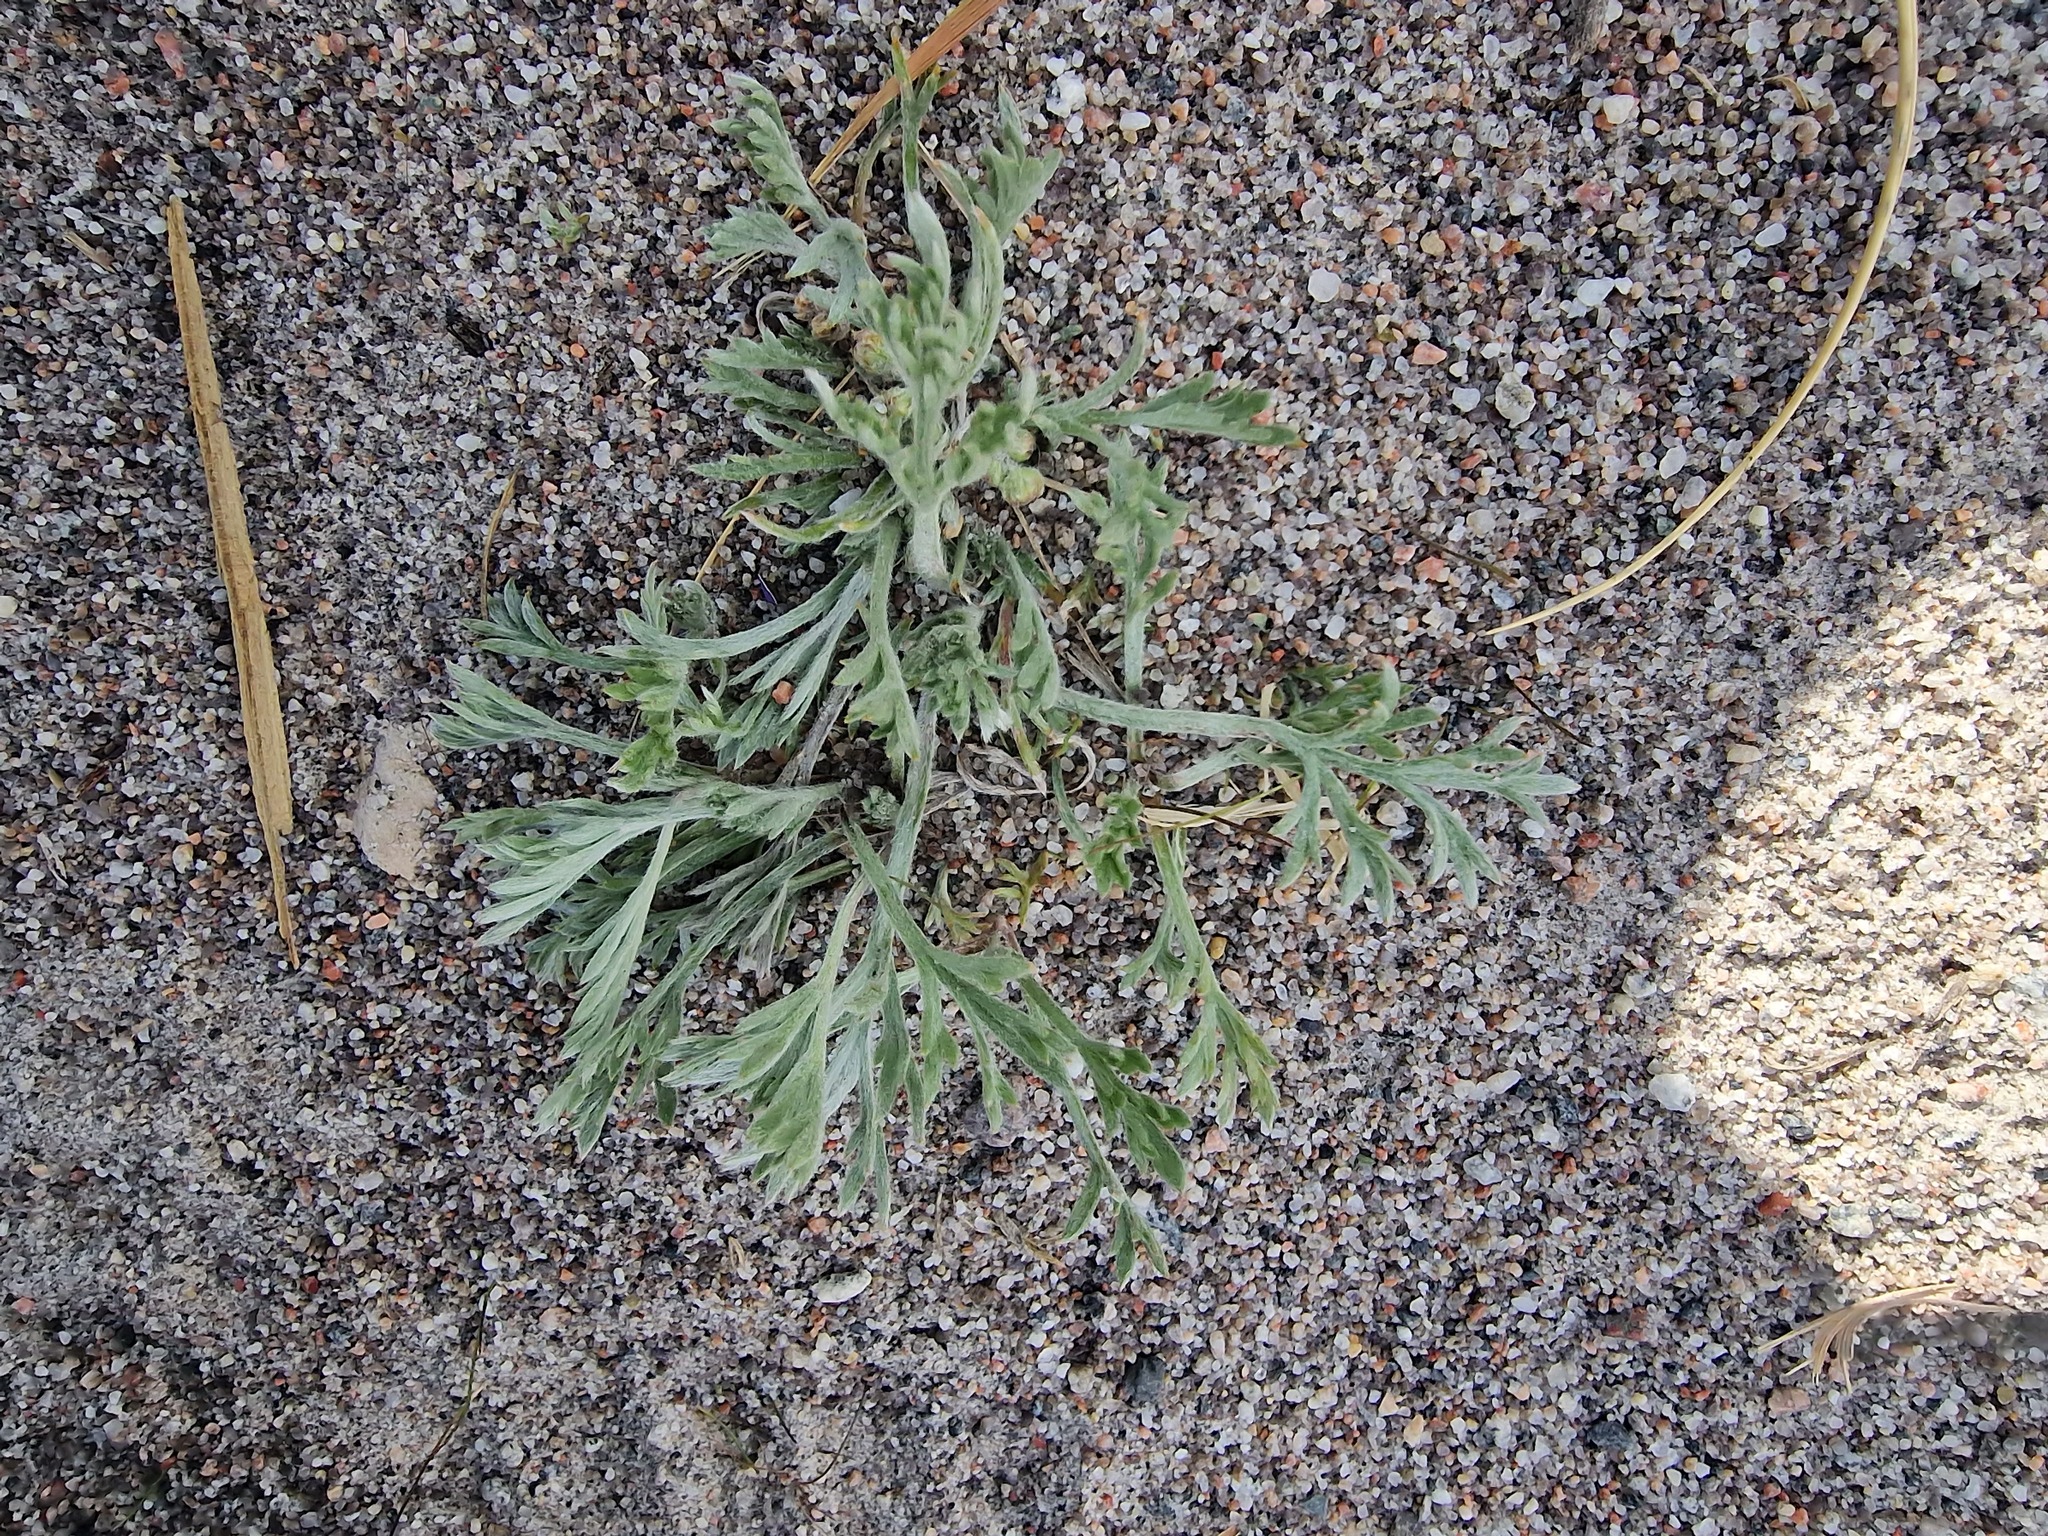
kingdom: Plantae
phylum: Tracheophyta
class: Magnoliopsida
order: Asterales
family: Asteraceae
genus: Artemisia
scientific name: Artemisia borealis
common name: Boreal sage
